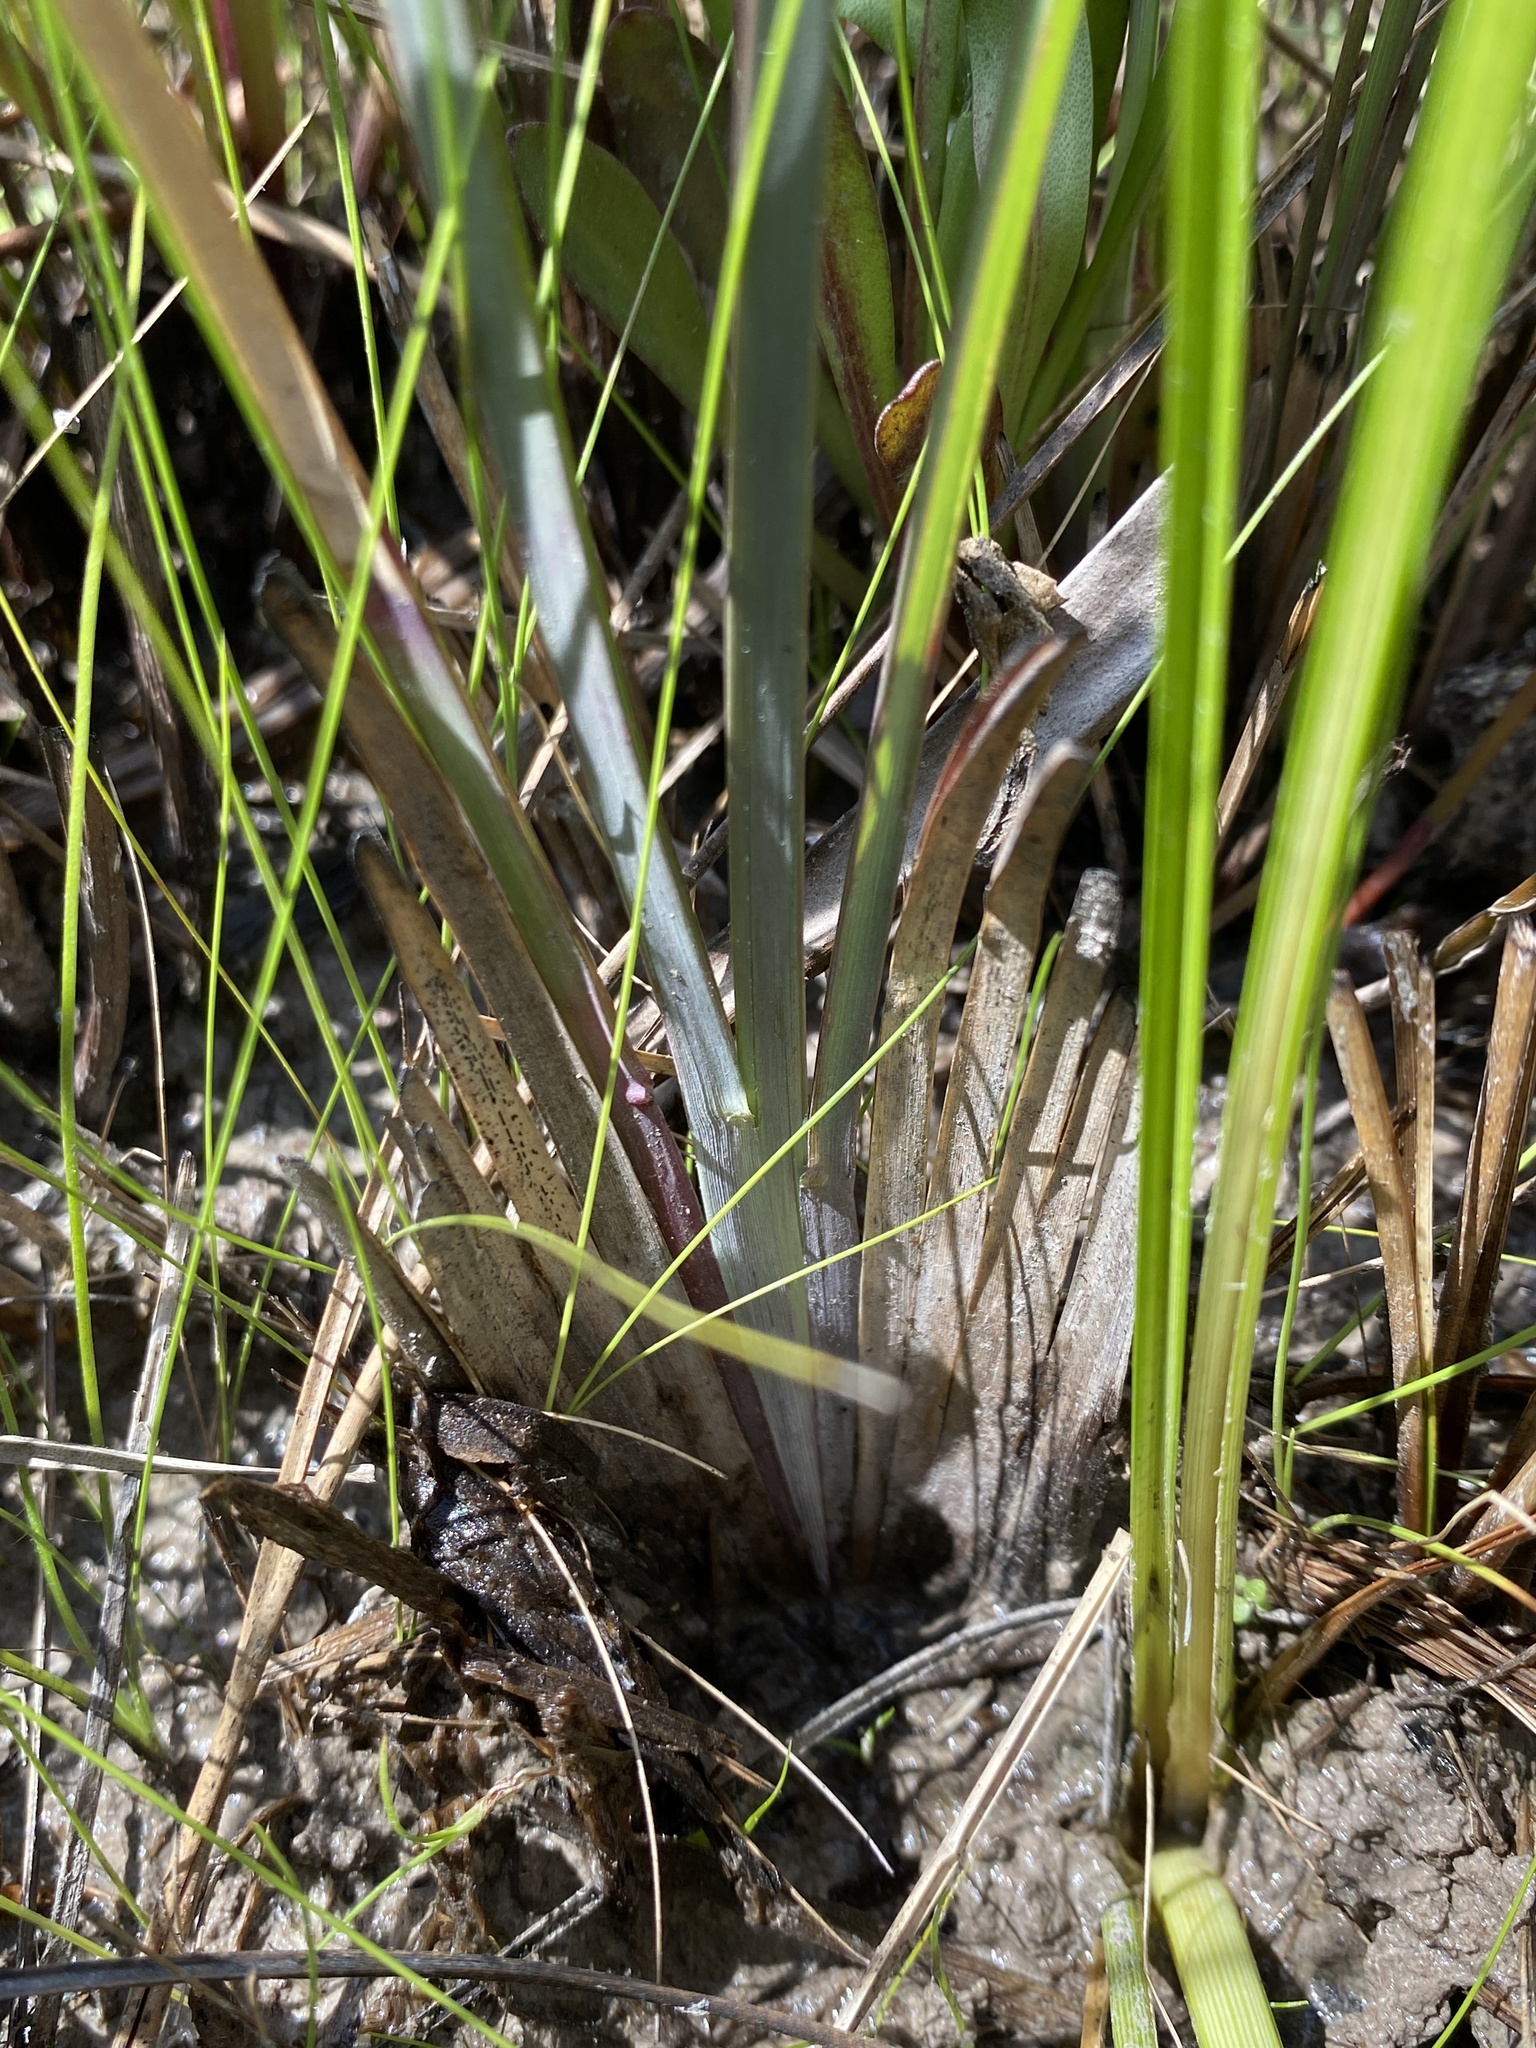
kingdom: Plantae
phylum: Tracheophyta
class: Liliopsida
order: Poales
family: Poaceae
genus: Andropogon
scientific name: Andropogon dealbatus
